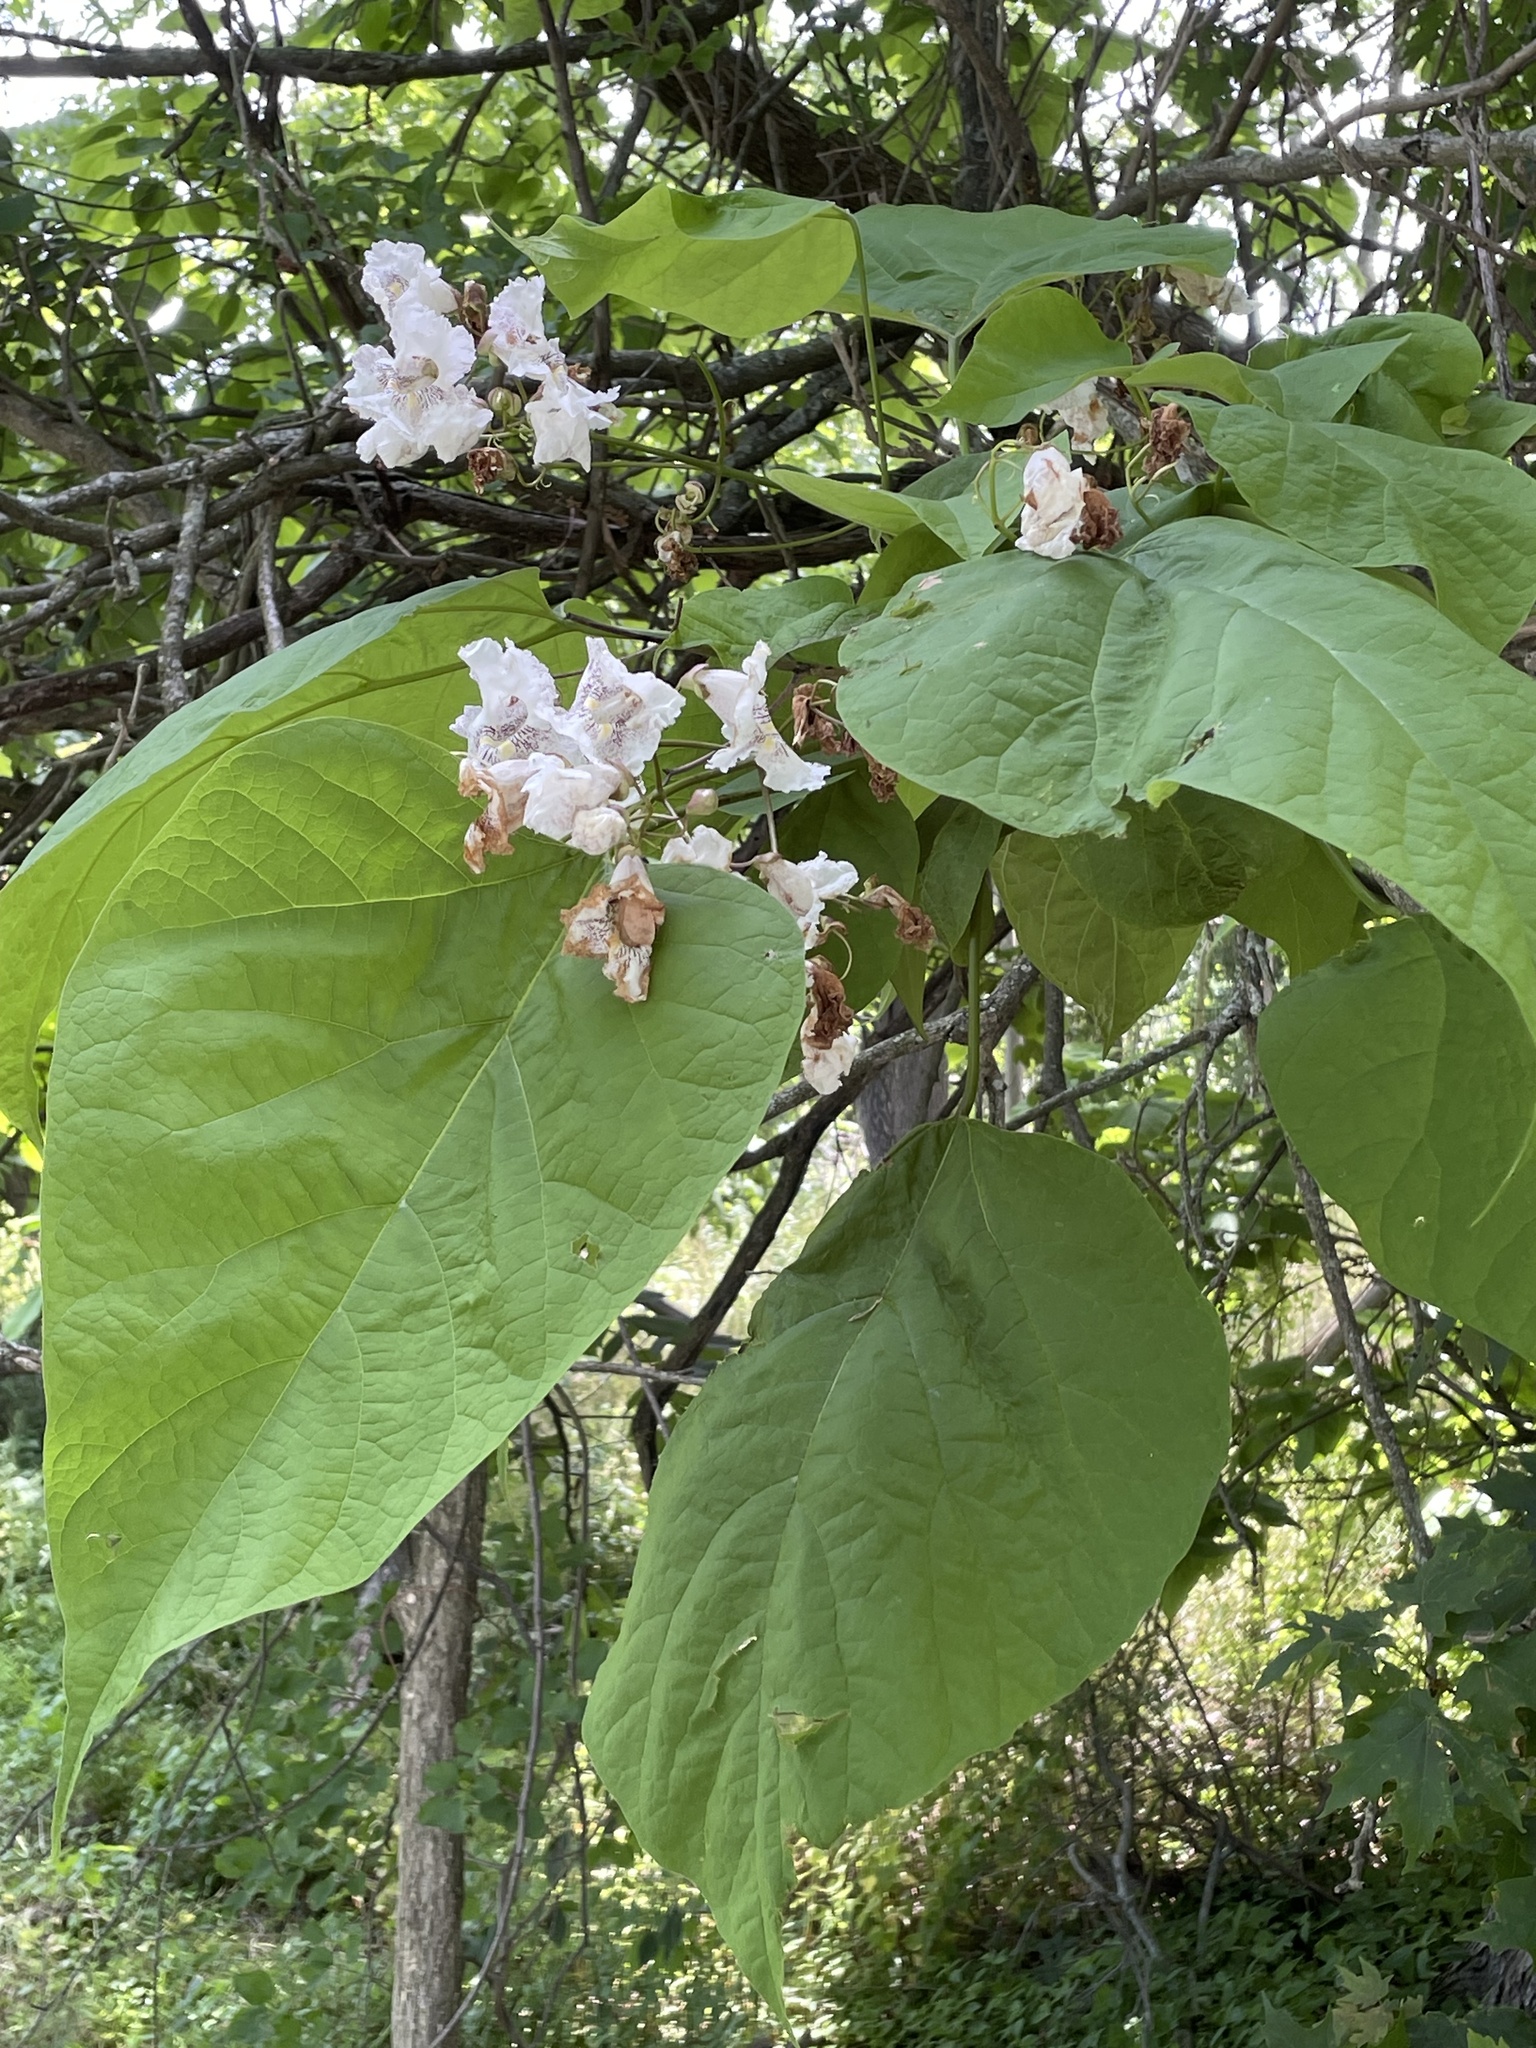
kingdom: Plantae
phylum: Tracheophyta
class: Magnoliopsida
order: Lamiales
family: Bignoniaceae
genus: Catalpa
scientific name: Catalpa speciosa
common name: Northern catalpa
